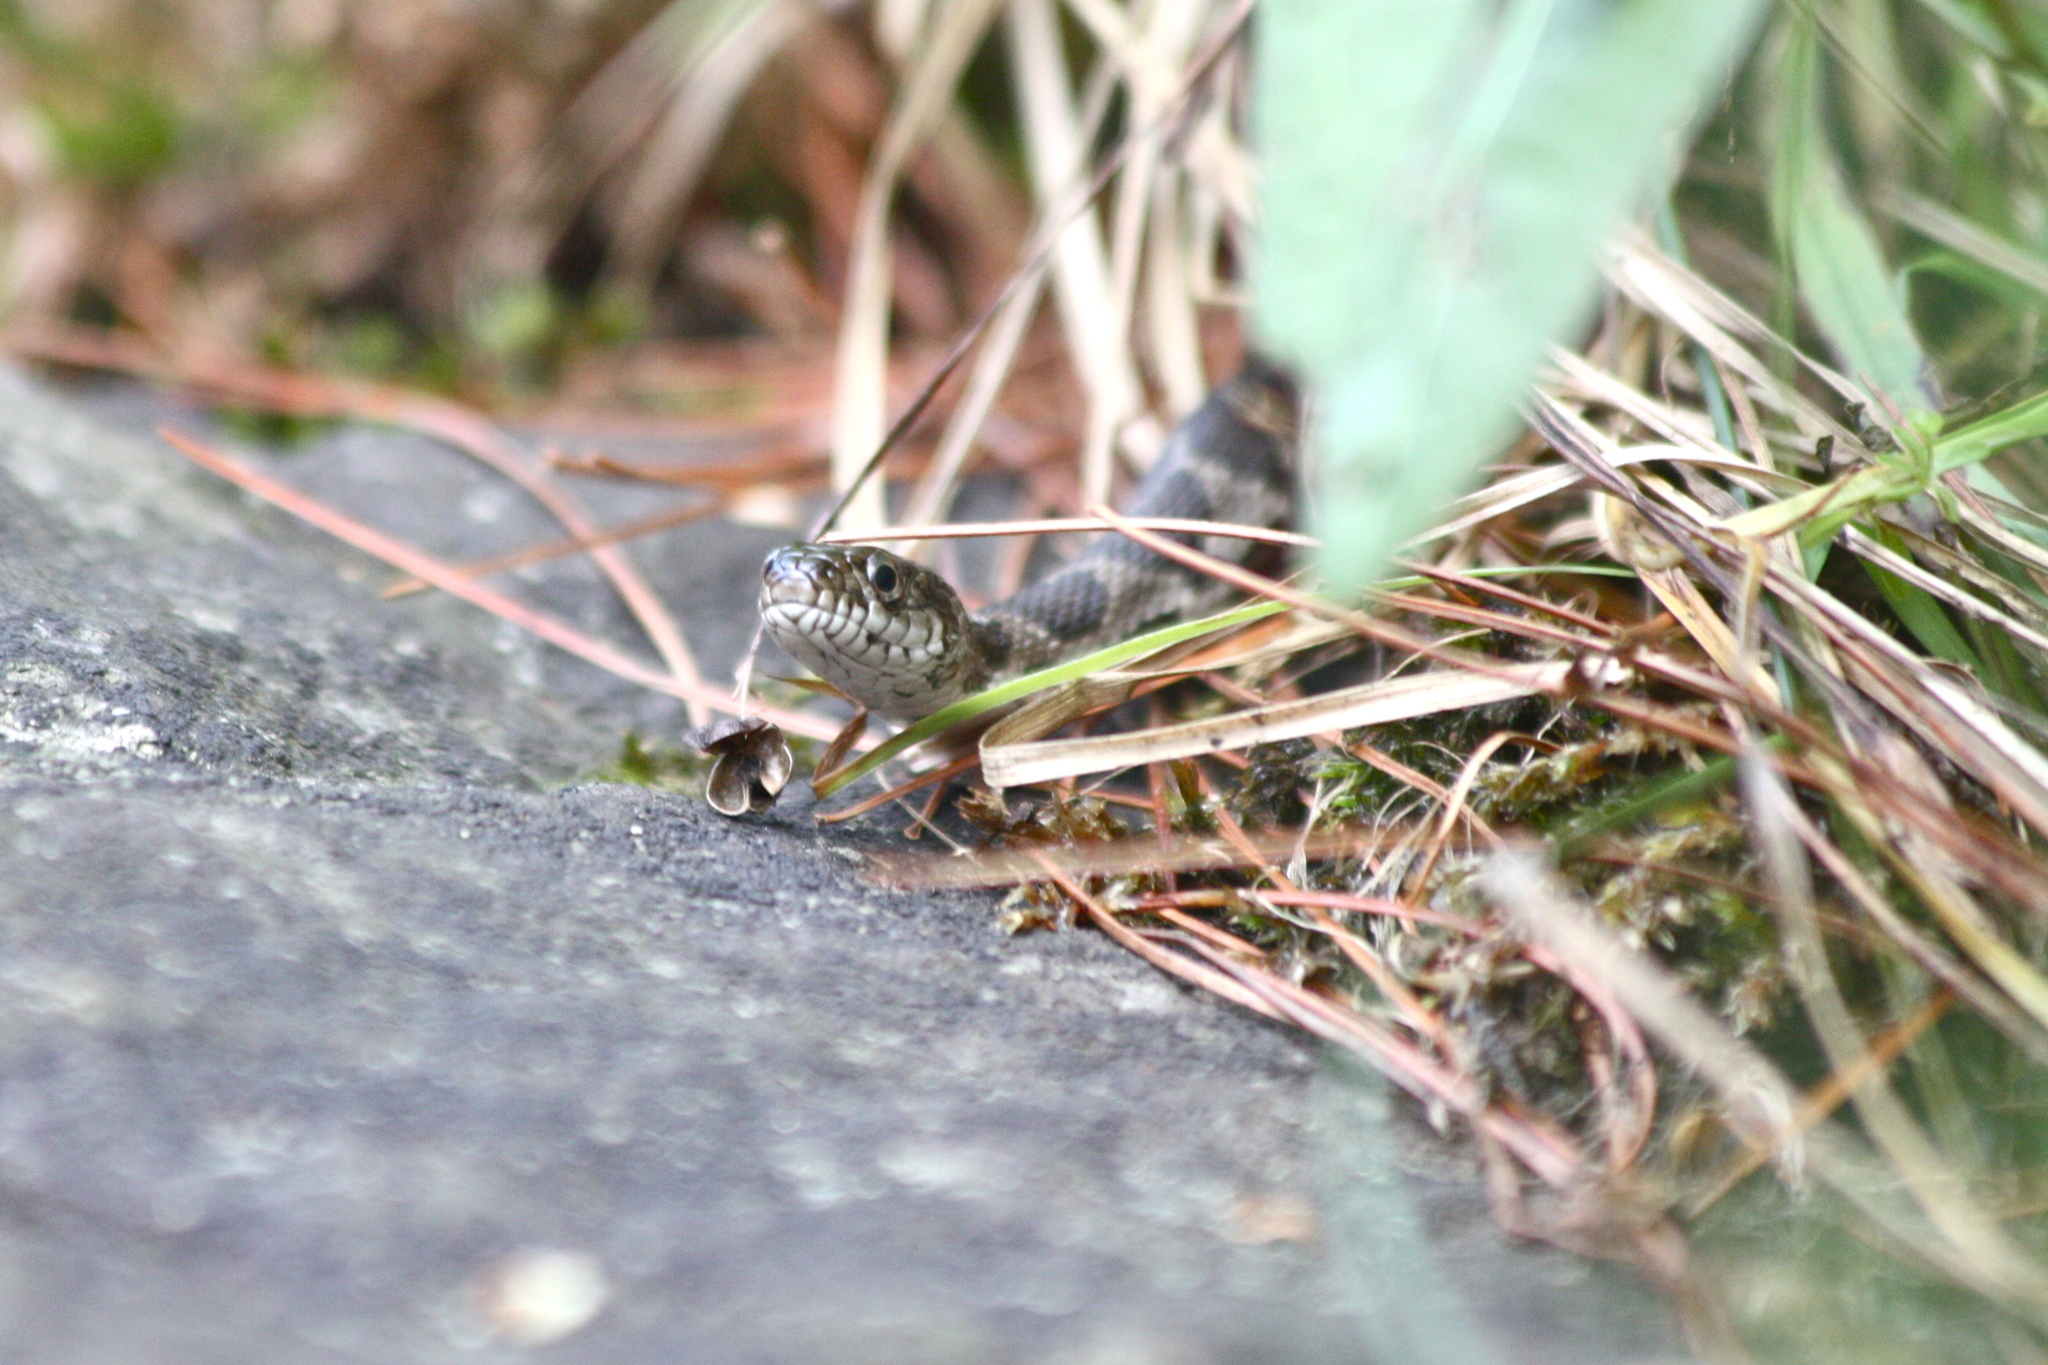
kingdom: Animalia
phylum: Chordata
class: Squamata
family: Colubridae
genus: Nerodia
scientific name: Nerodia sipedon
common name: Northern water snake
